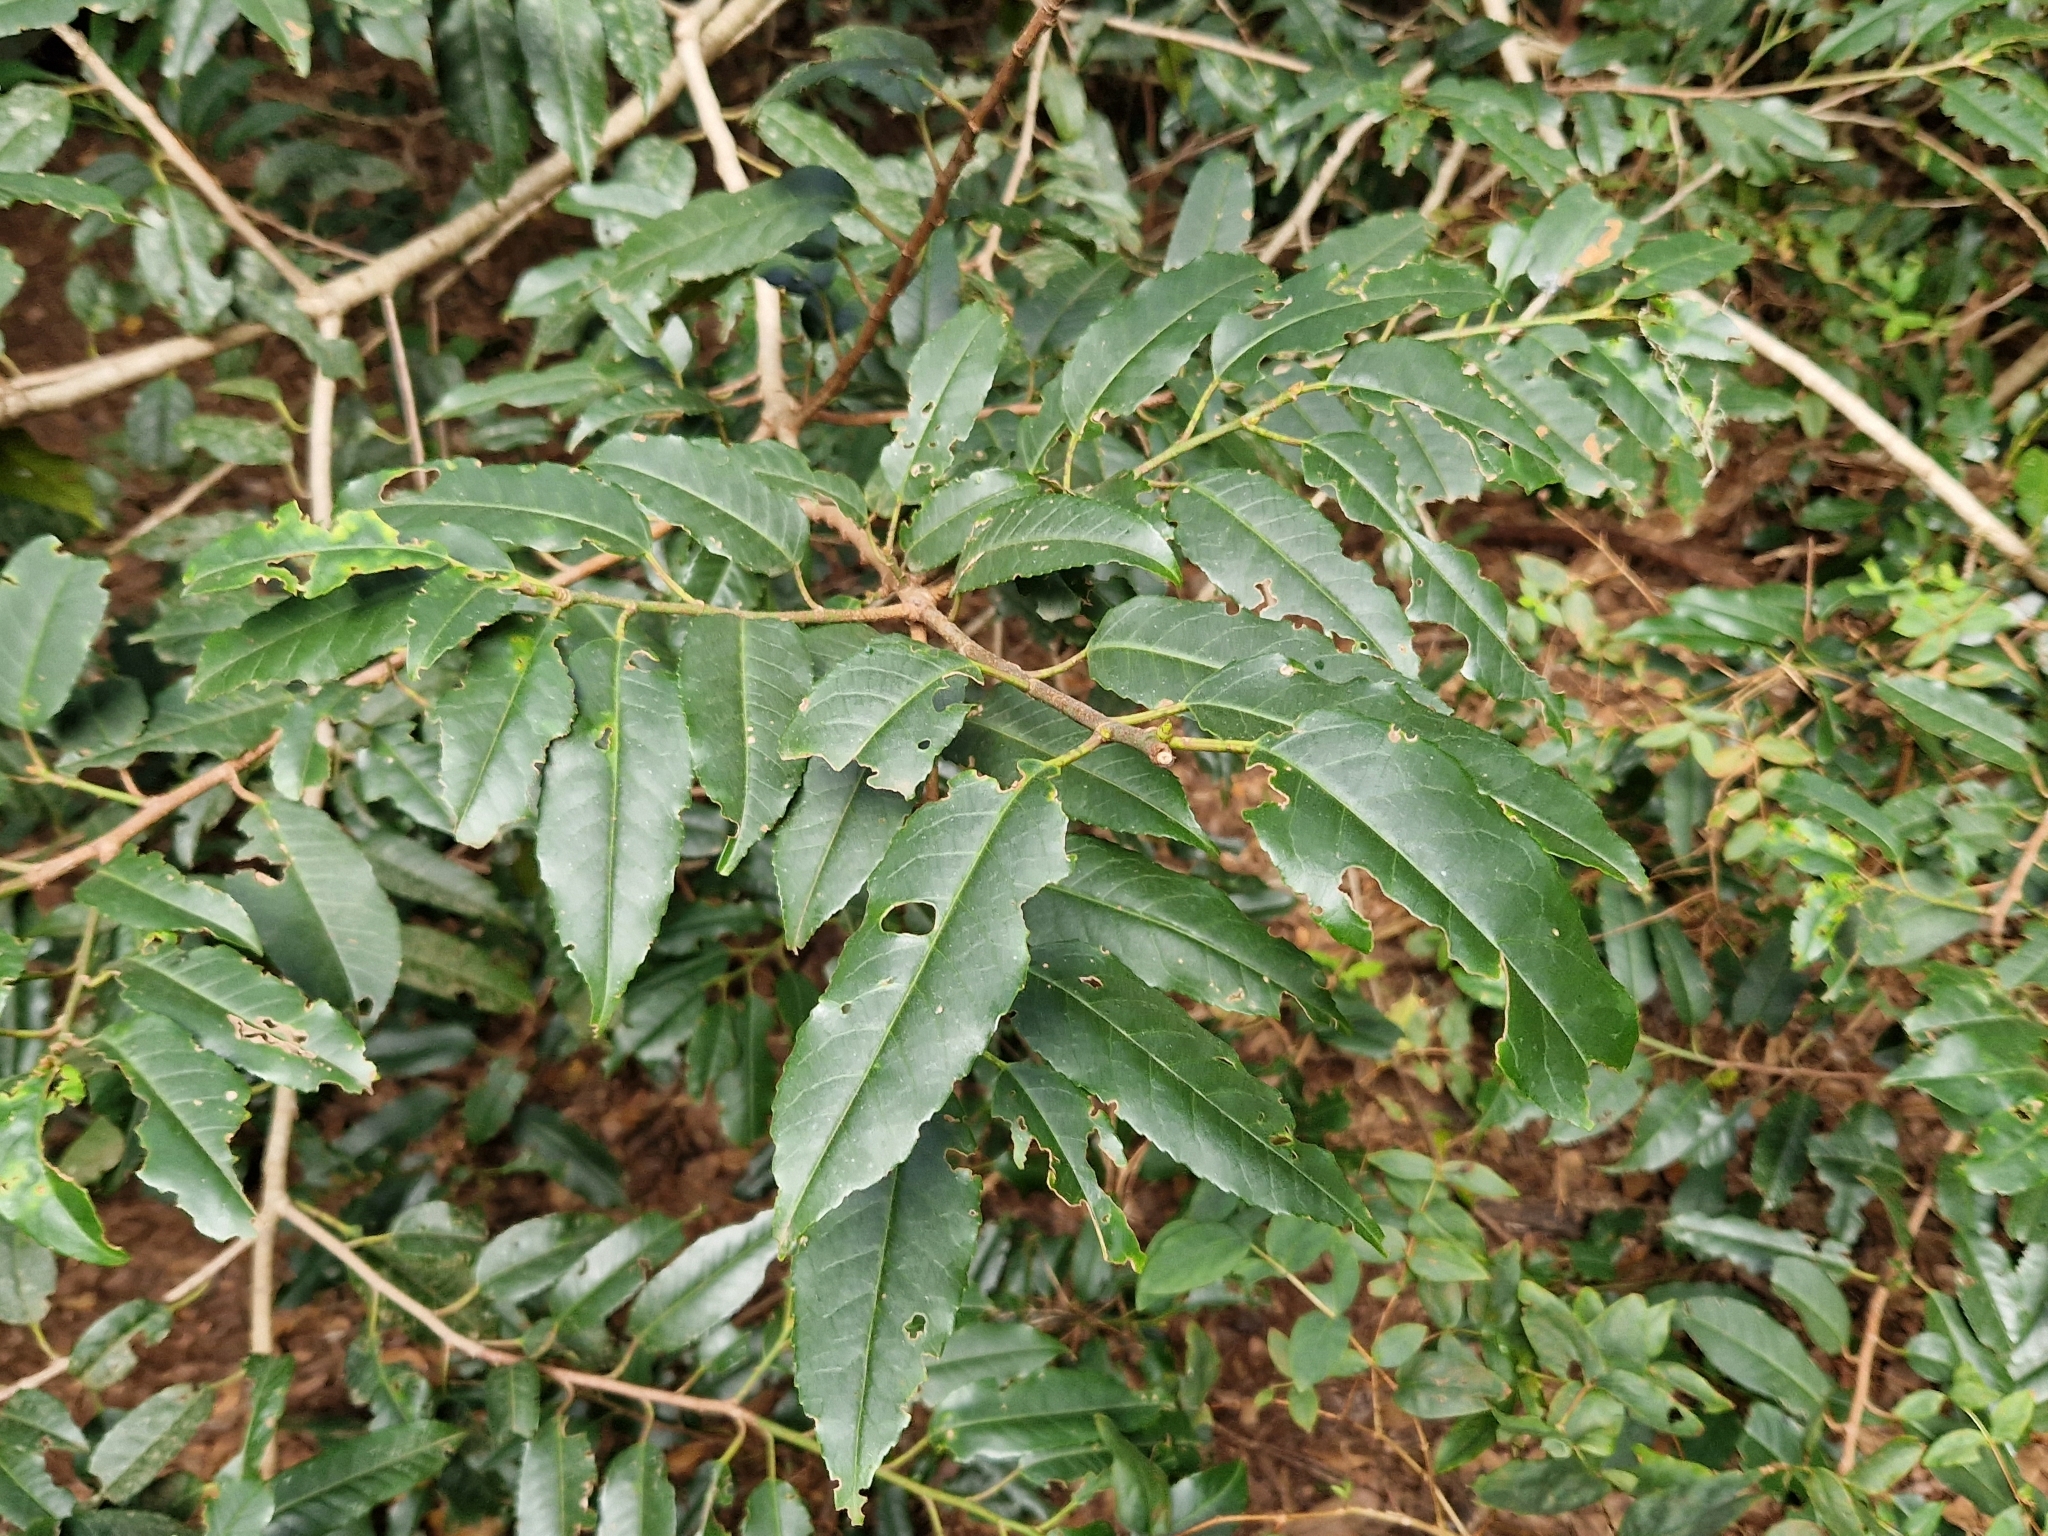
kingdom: Plantae
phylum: Tracheophyta
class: Magnoliopsida
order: Rosales
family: Rosaceae
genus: Prunus
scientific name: Prunus hixa
